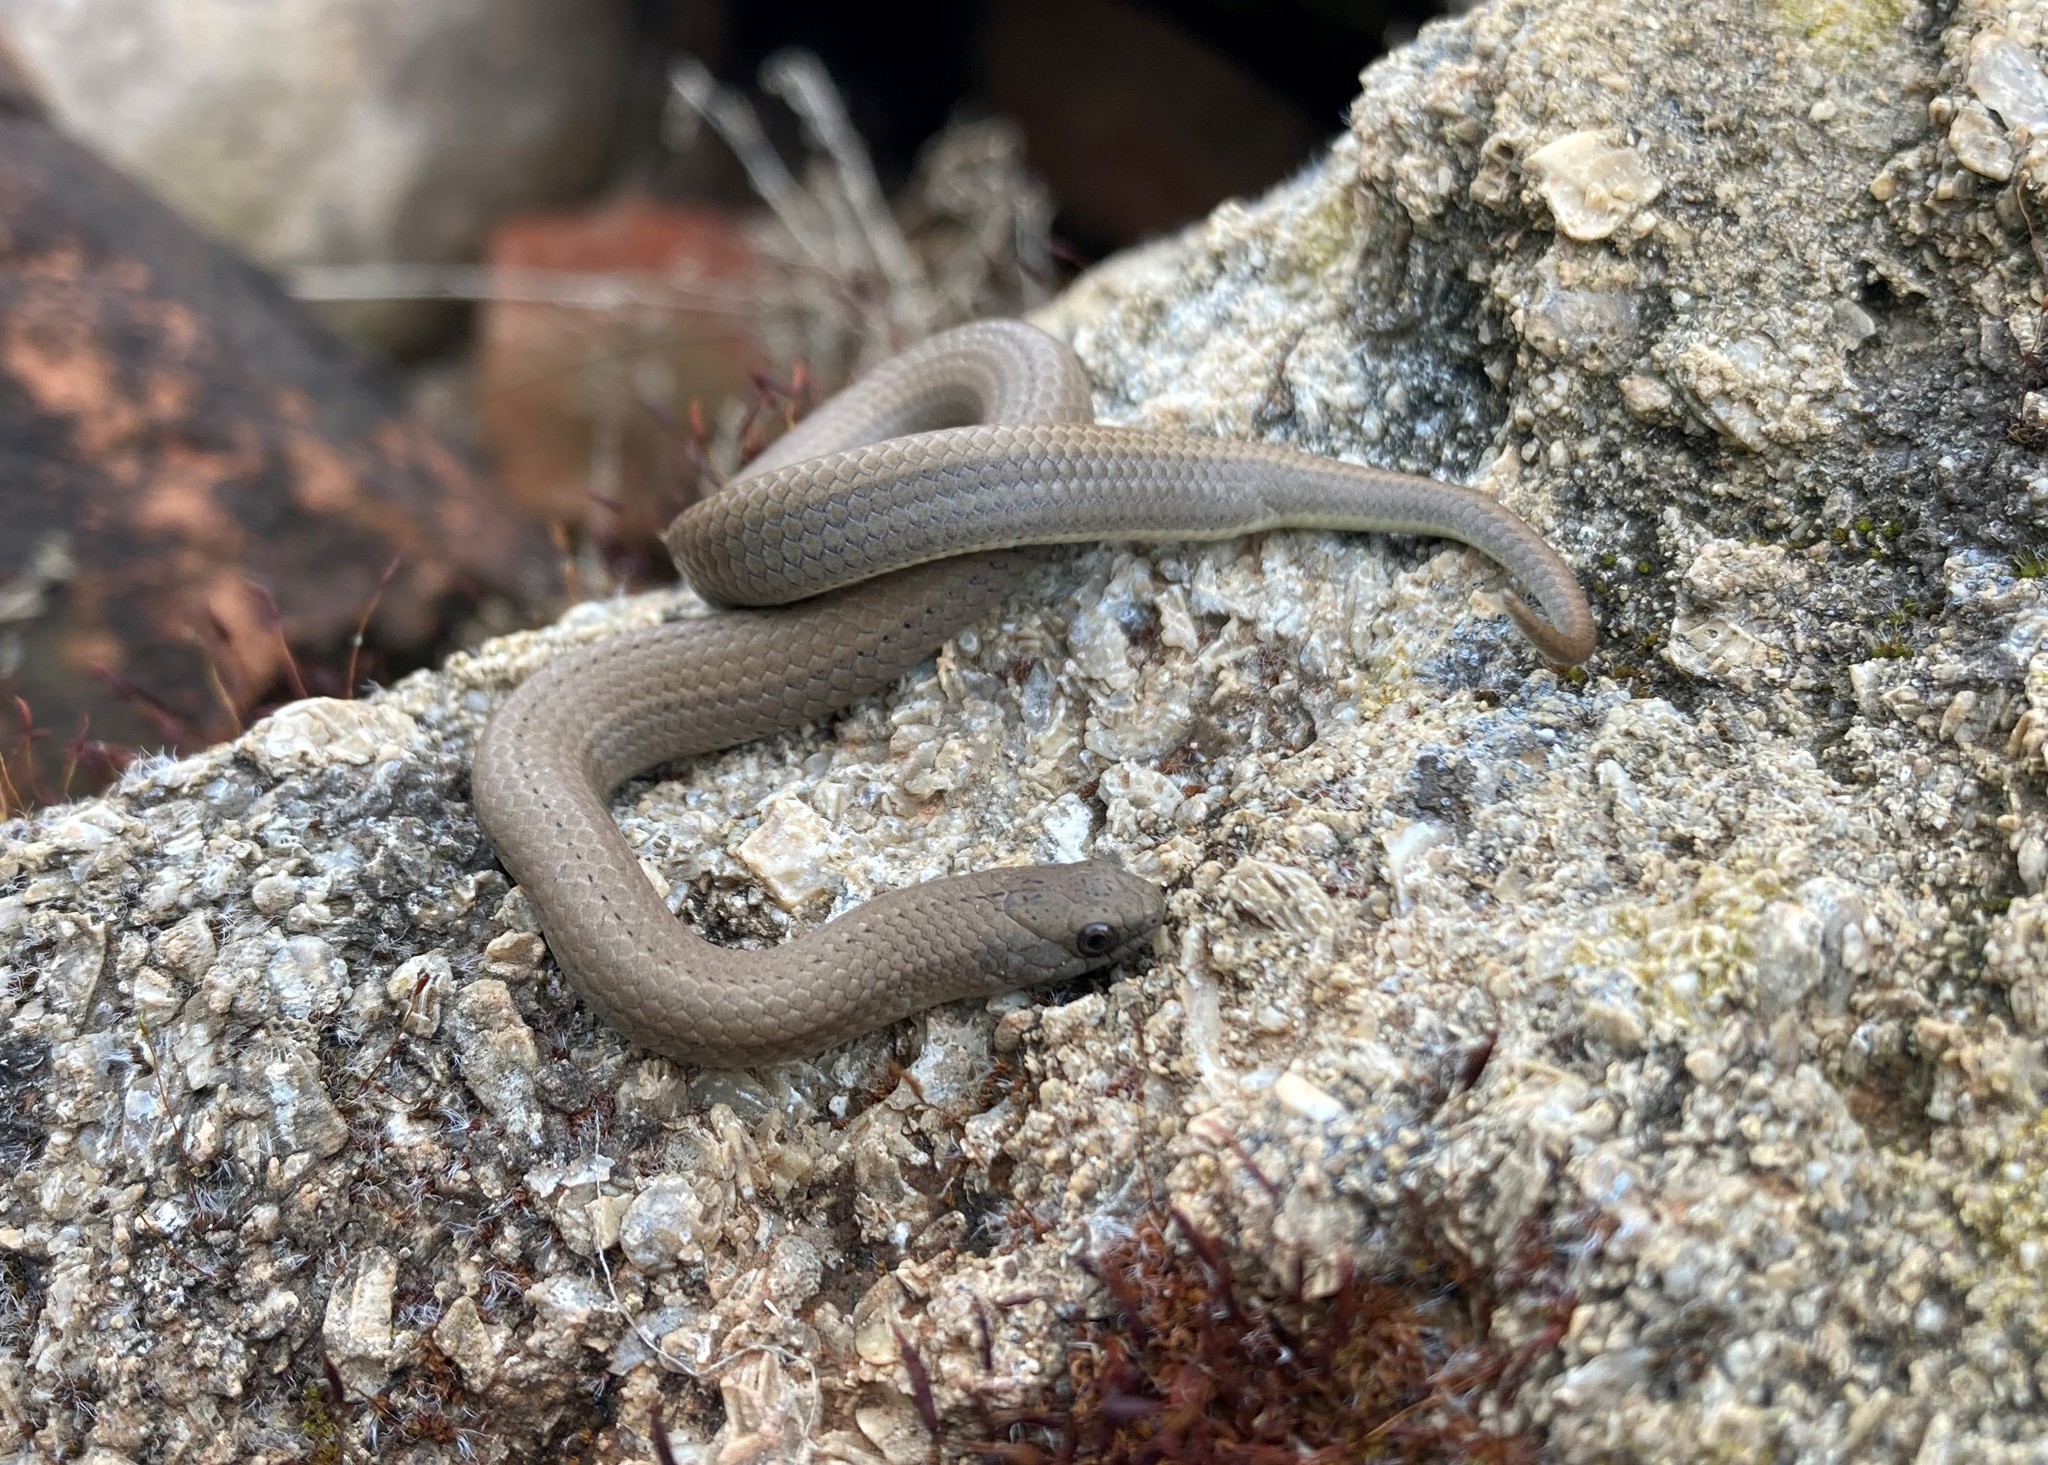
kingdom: Animalia
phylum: Chordata
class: Squamata
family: Pseudoxyrhophiidae
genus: Duberria
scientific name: Duberria lutrix
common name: Common slug eater
